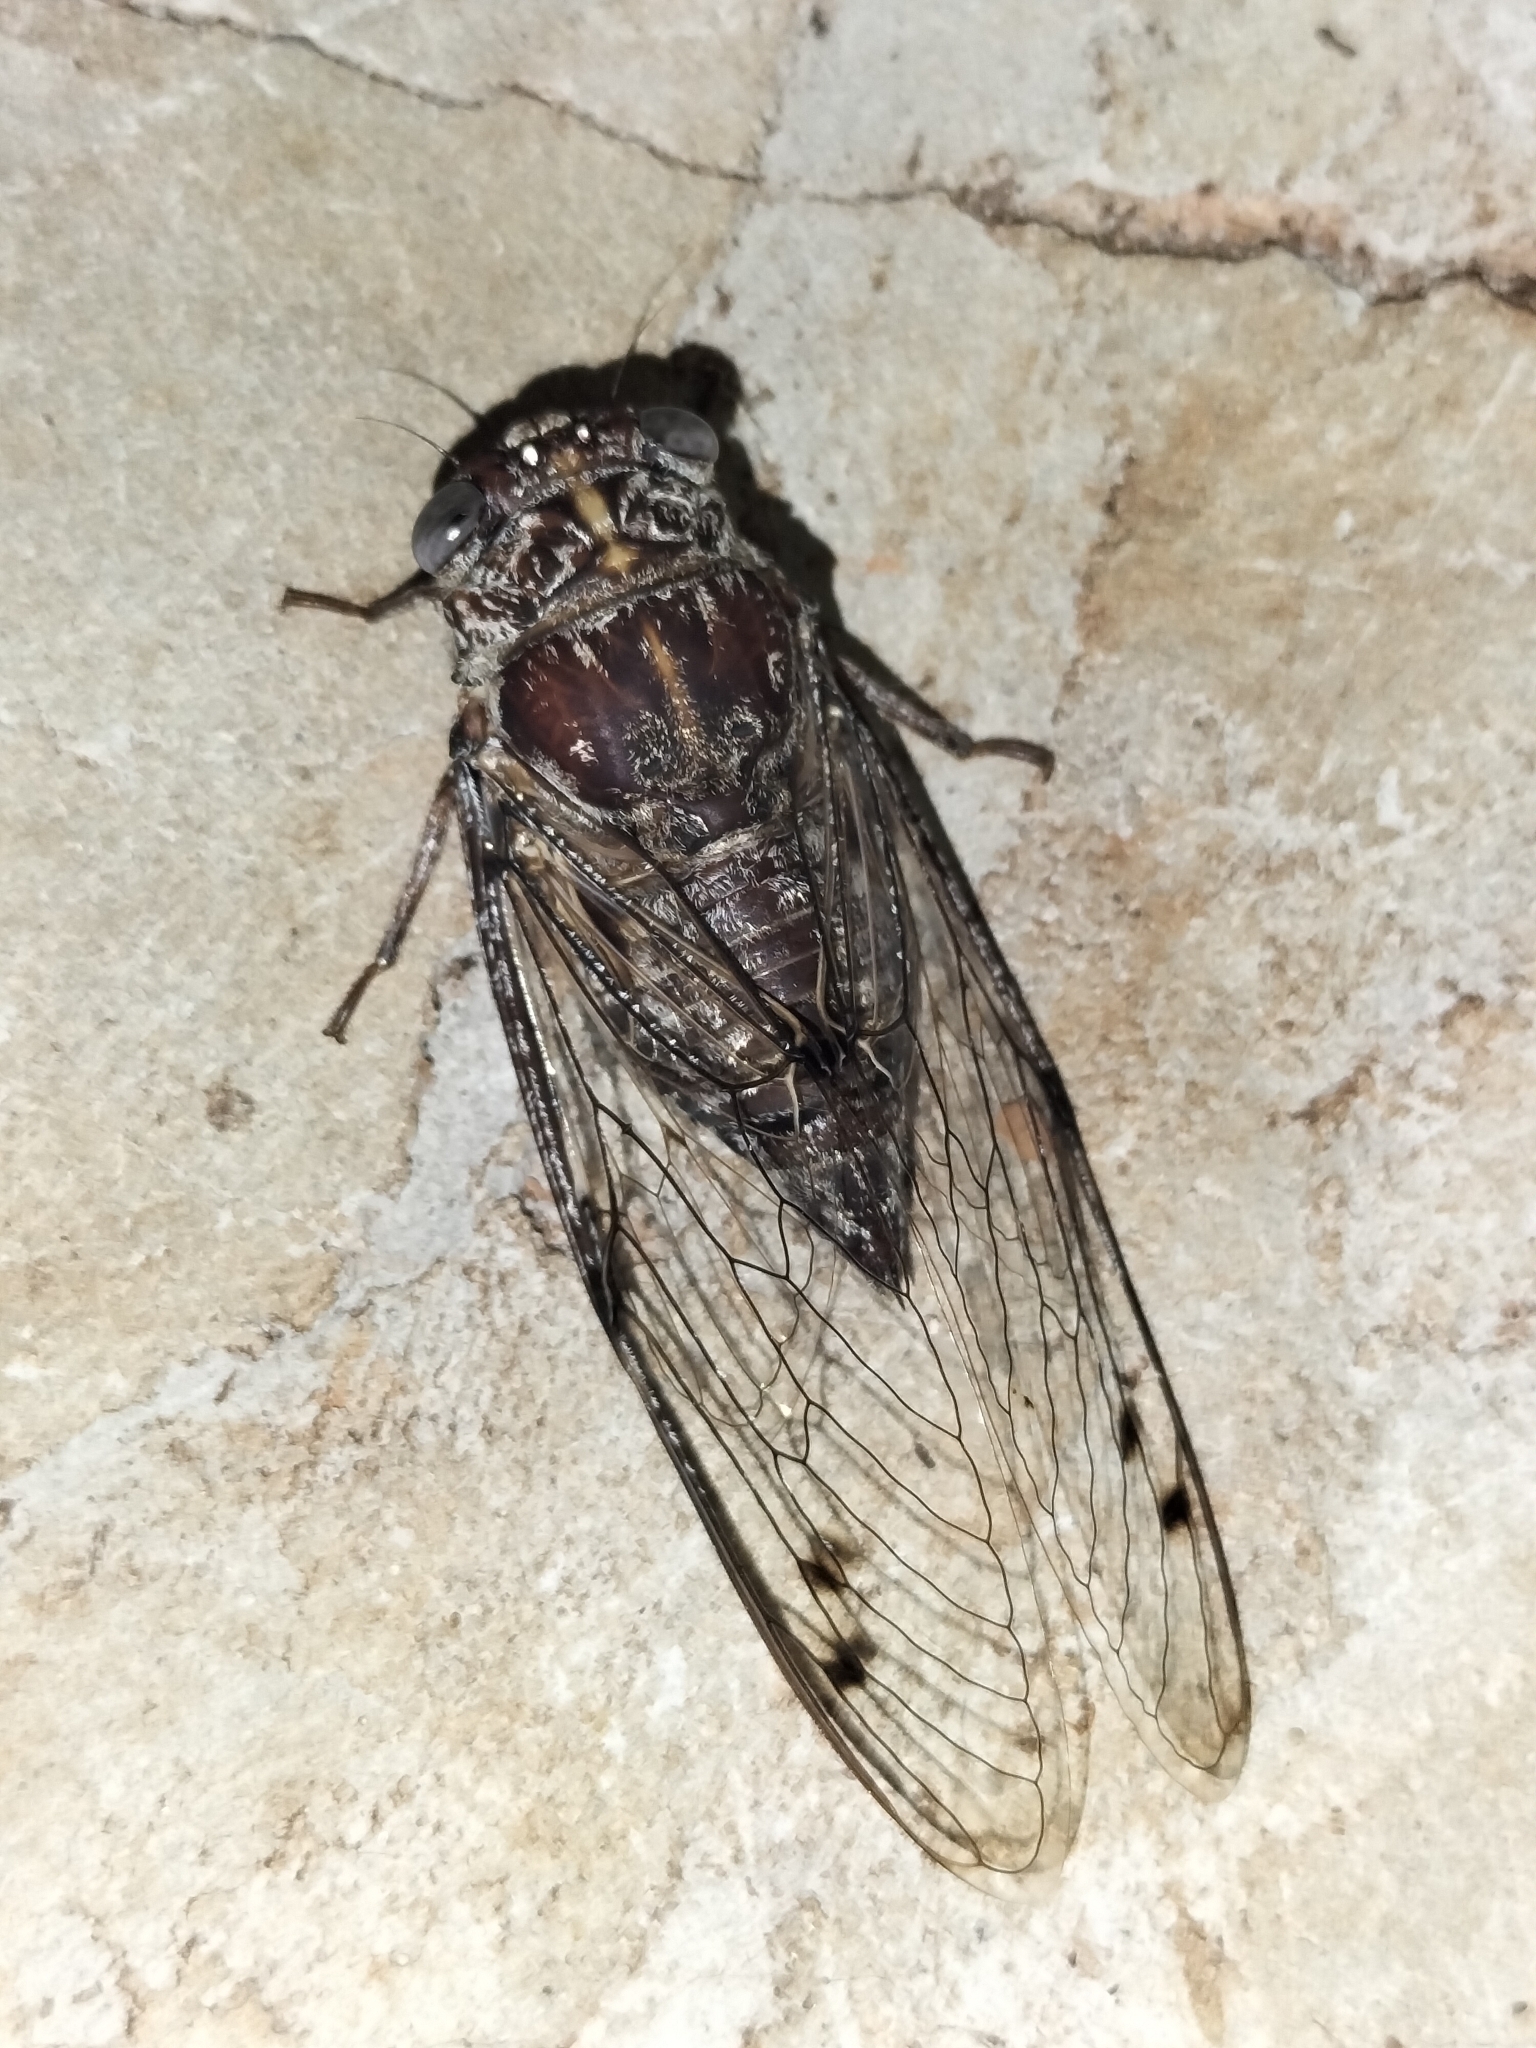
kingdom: Animalia
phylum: Arthropoda
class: Insecta
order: Hemiptera
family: Cicadidae
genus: Aleeta
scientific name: Aleeta curvicosta
